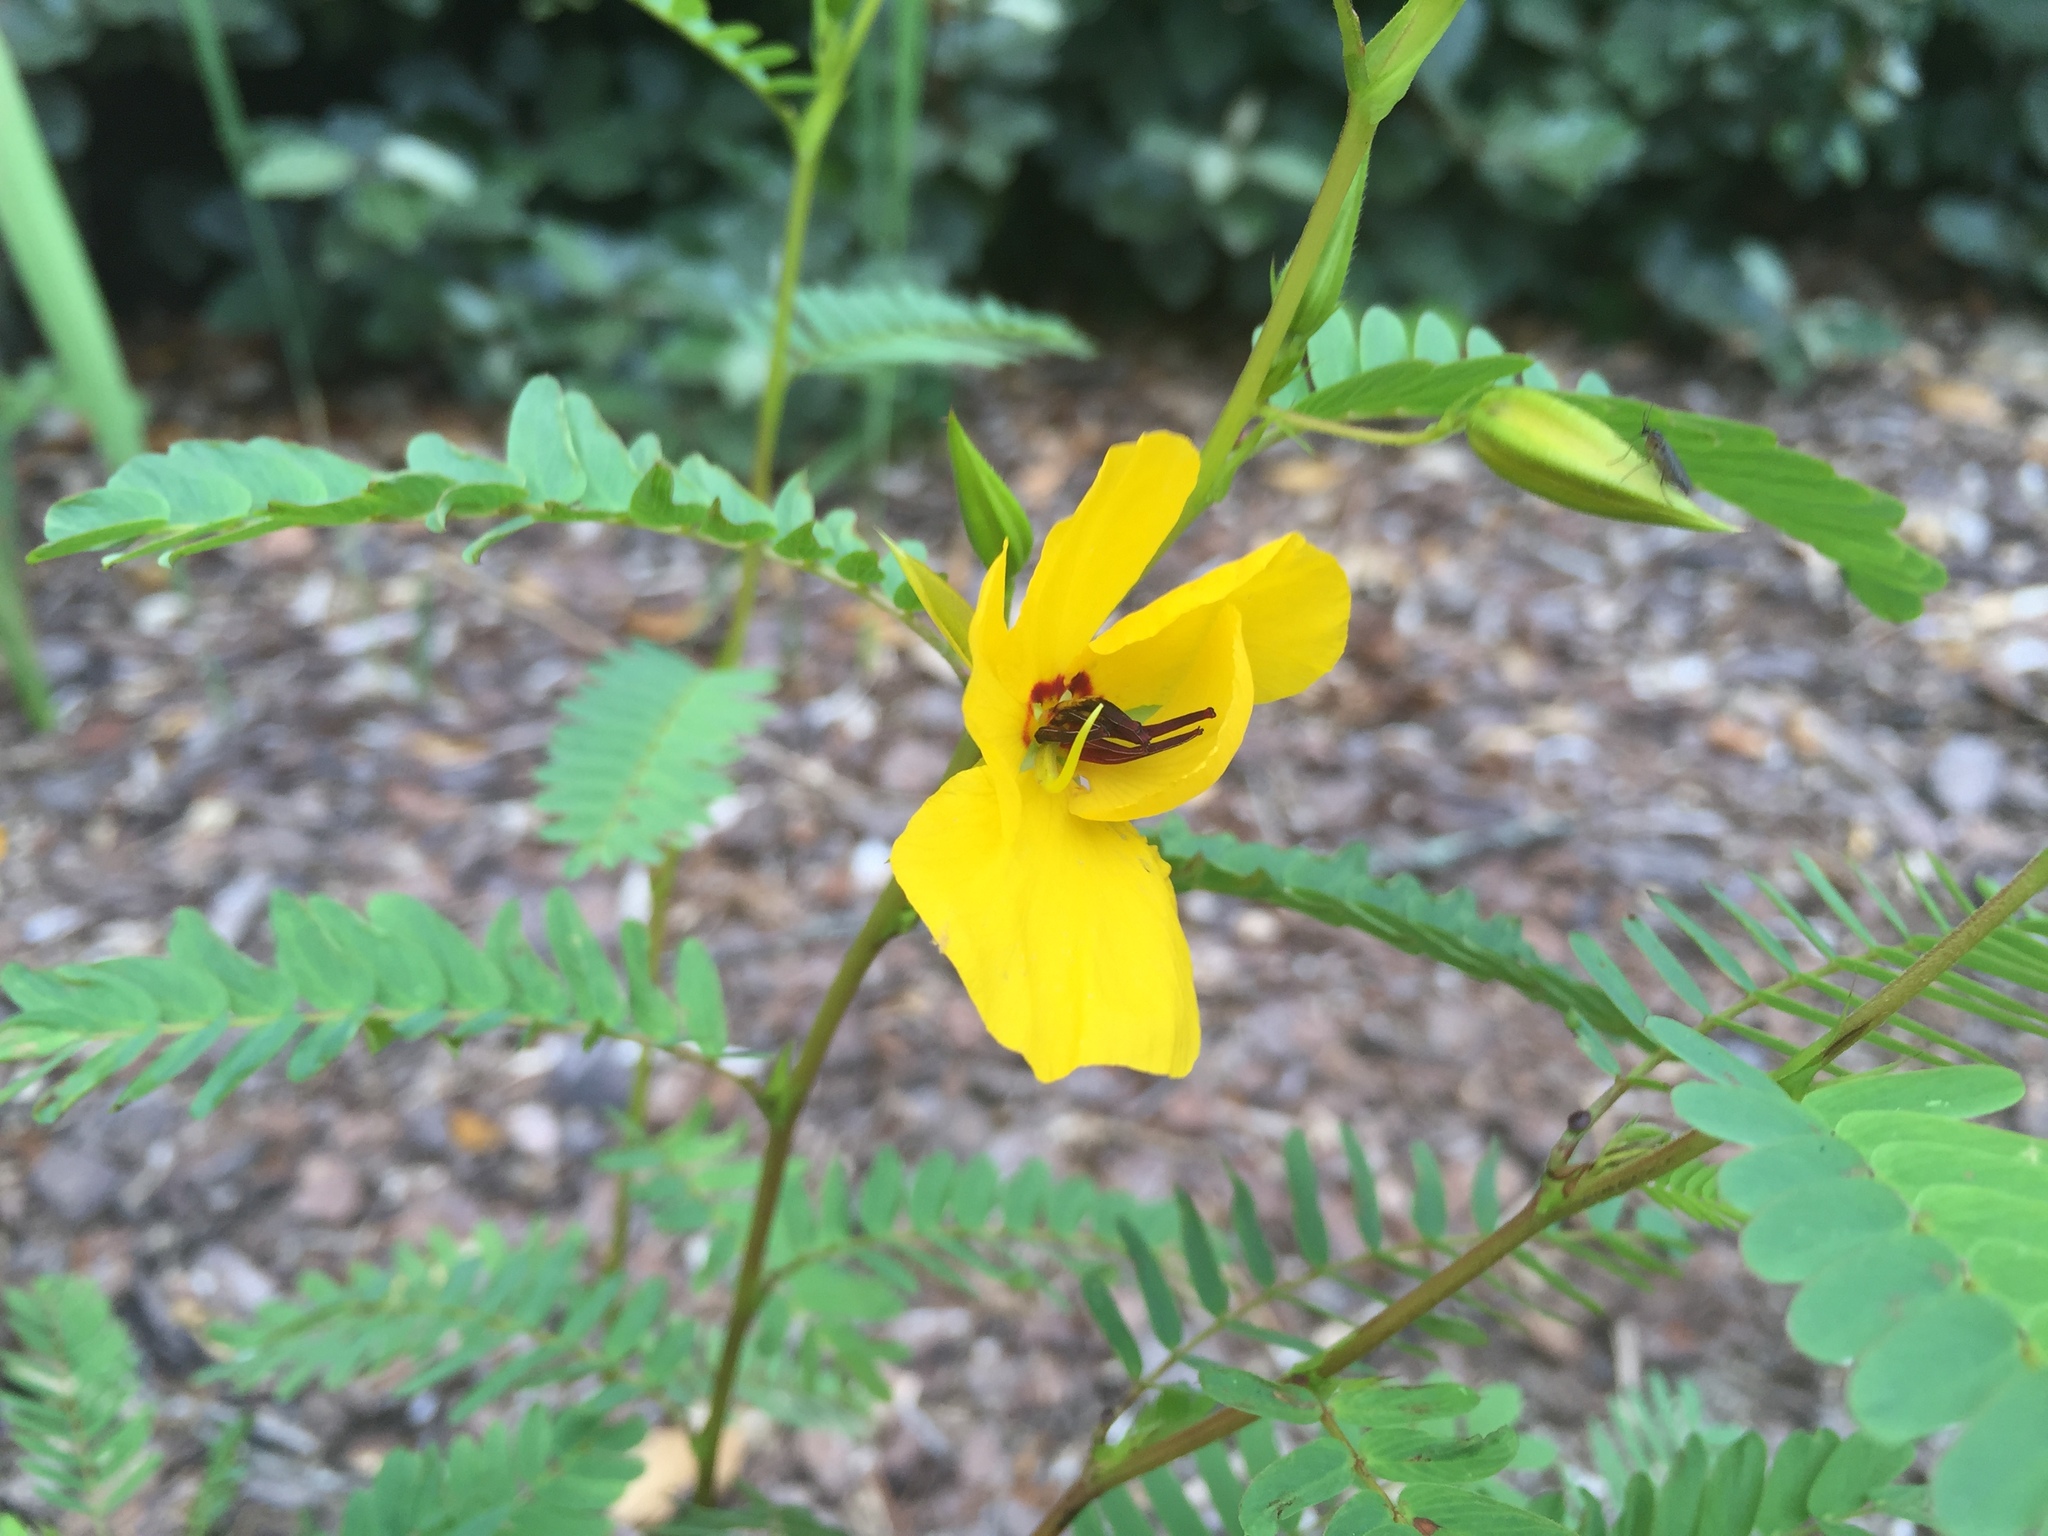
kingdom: Plantae
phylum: Tracheophyta
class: Magnoliopsida
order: Fabales
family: Fabaceae
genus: Chamaecrista
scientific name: Chamaecrista fasciculata
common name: Golden cassia
